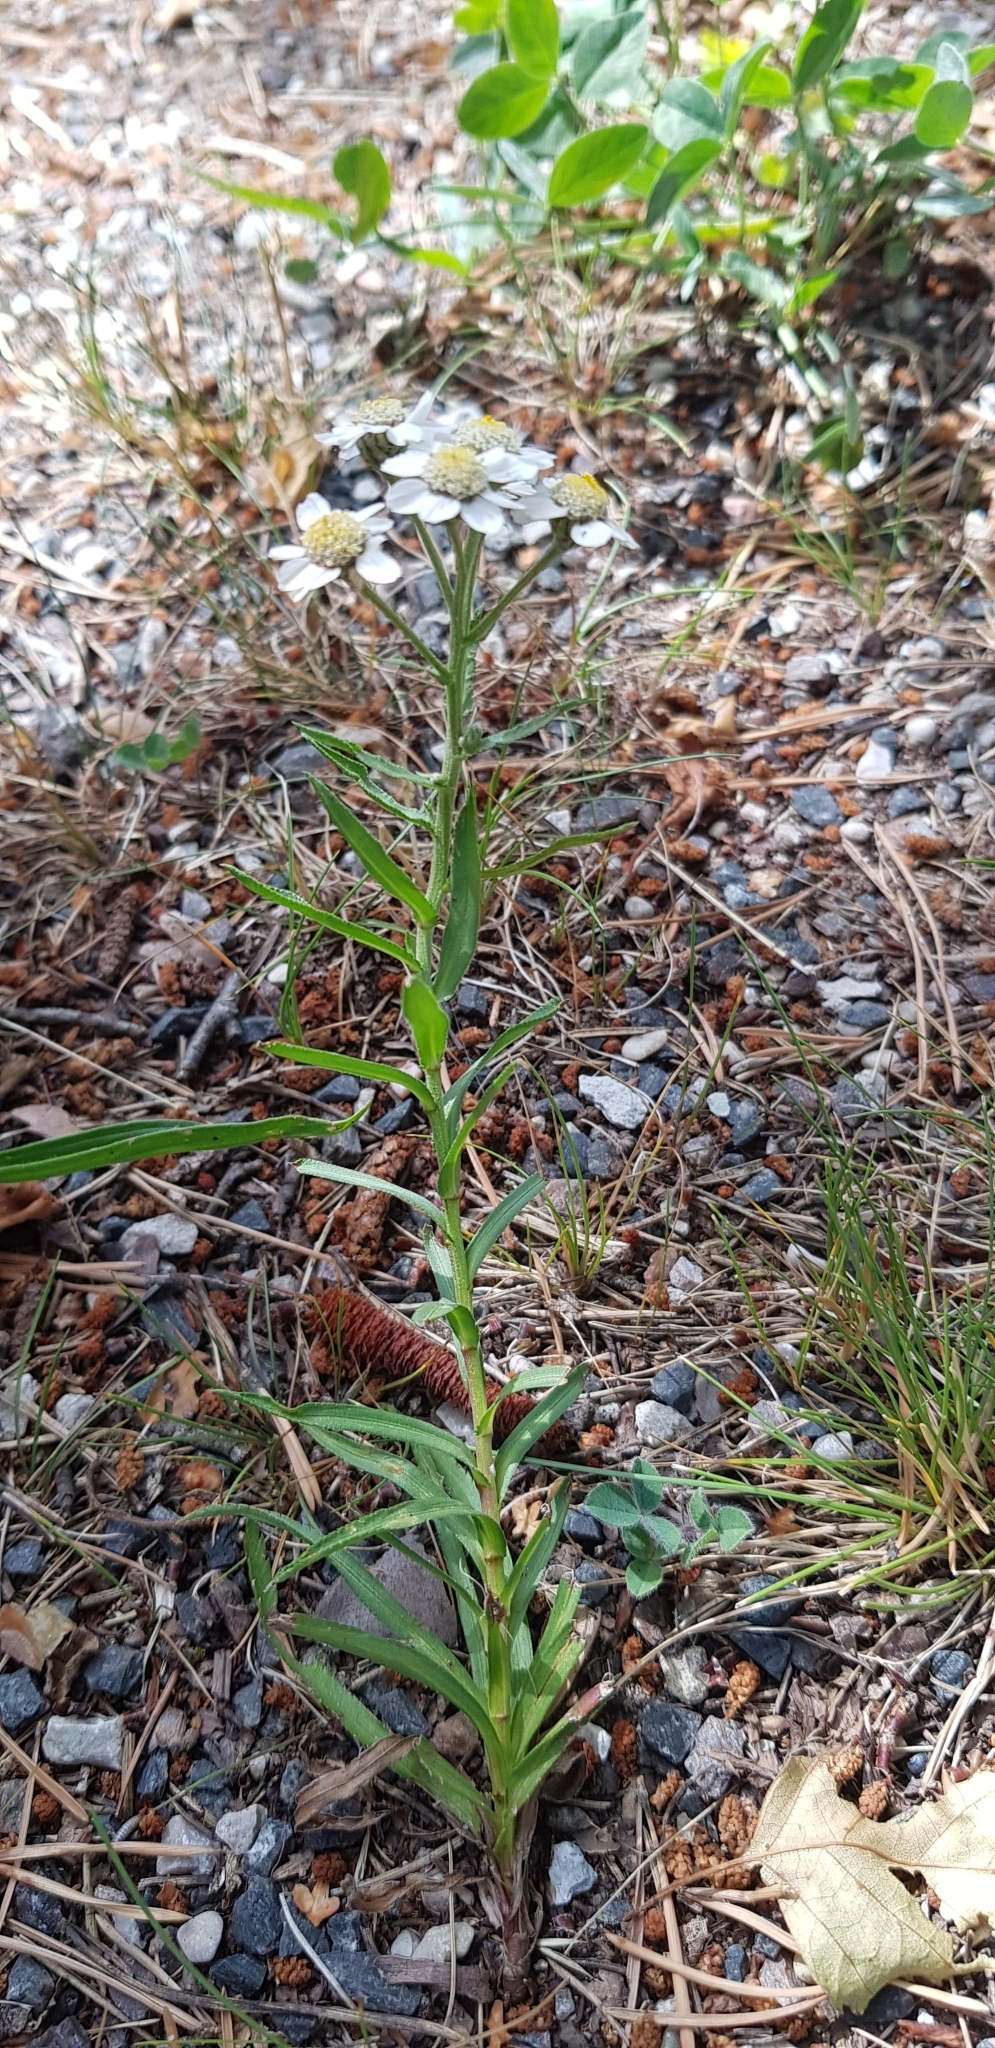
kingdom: Plantae
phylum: Tracheophyta
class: Magnoliopsida
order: Asterales
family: Asteraceae
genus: Achillea
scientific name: Achillea ptarmica
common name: Sneezeweed
